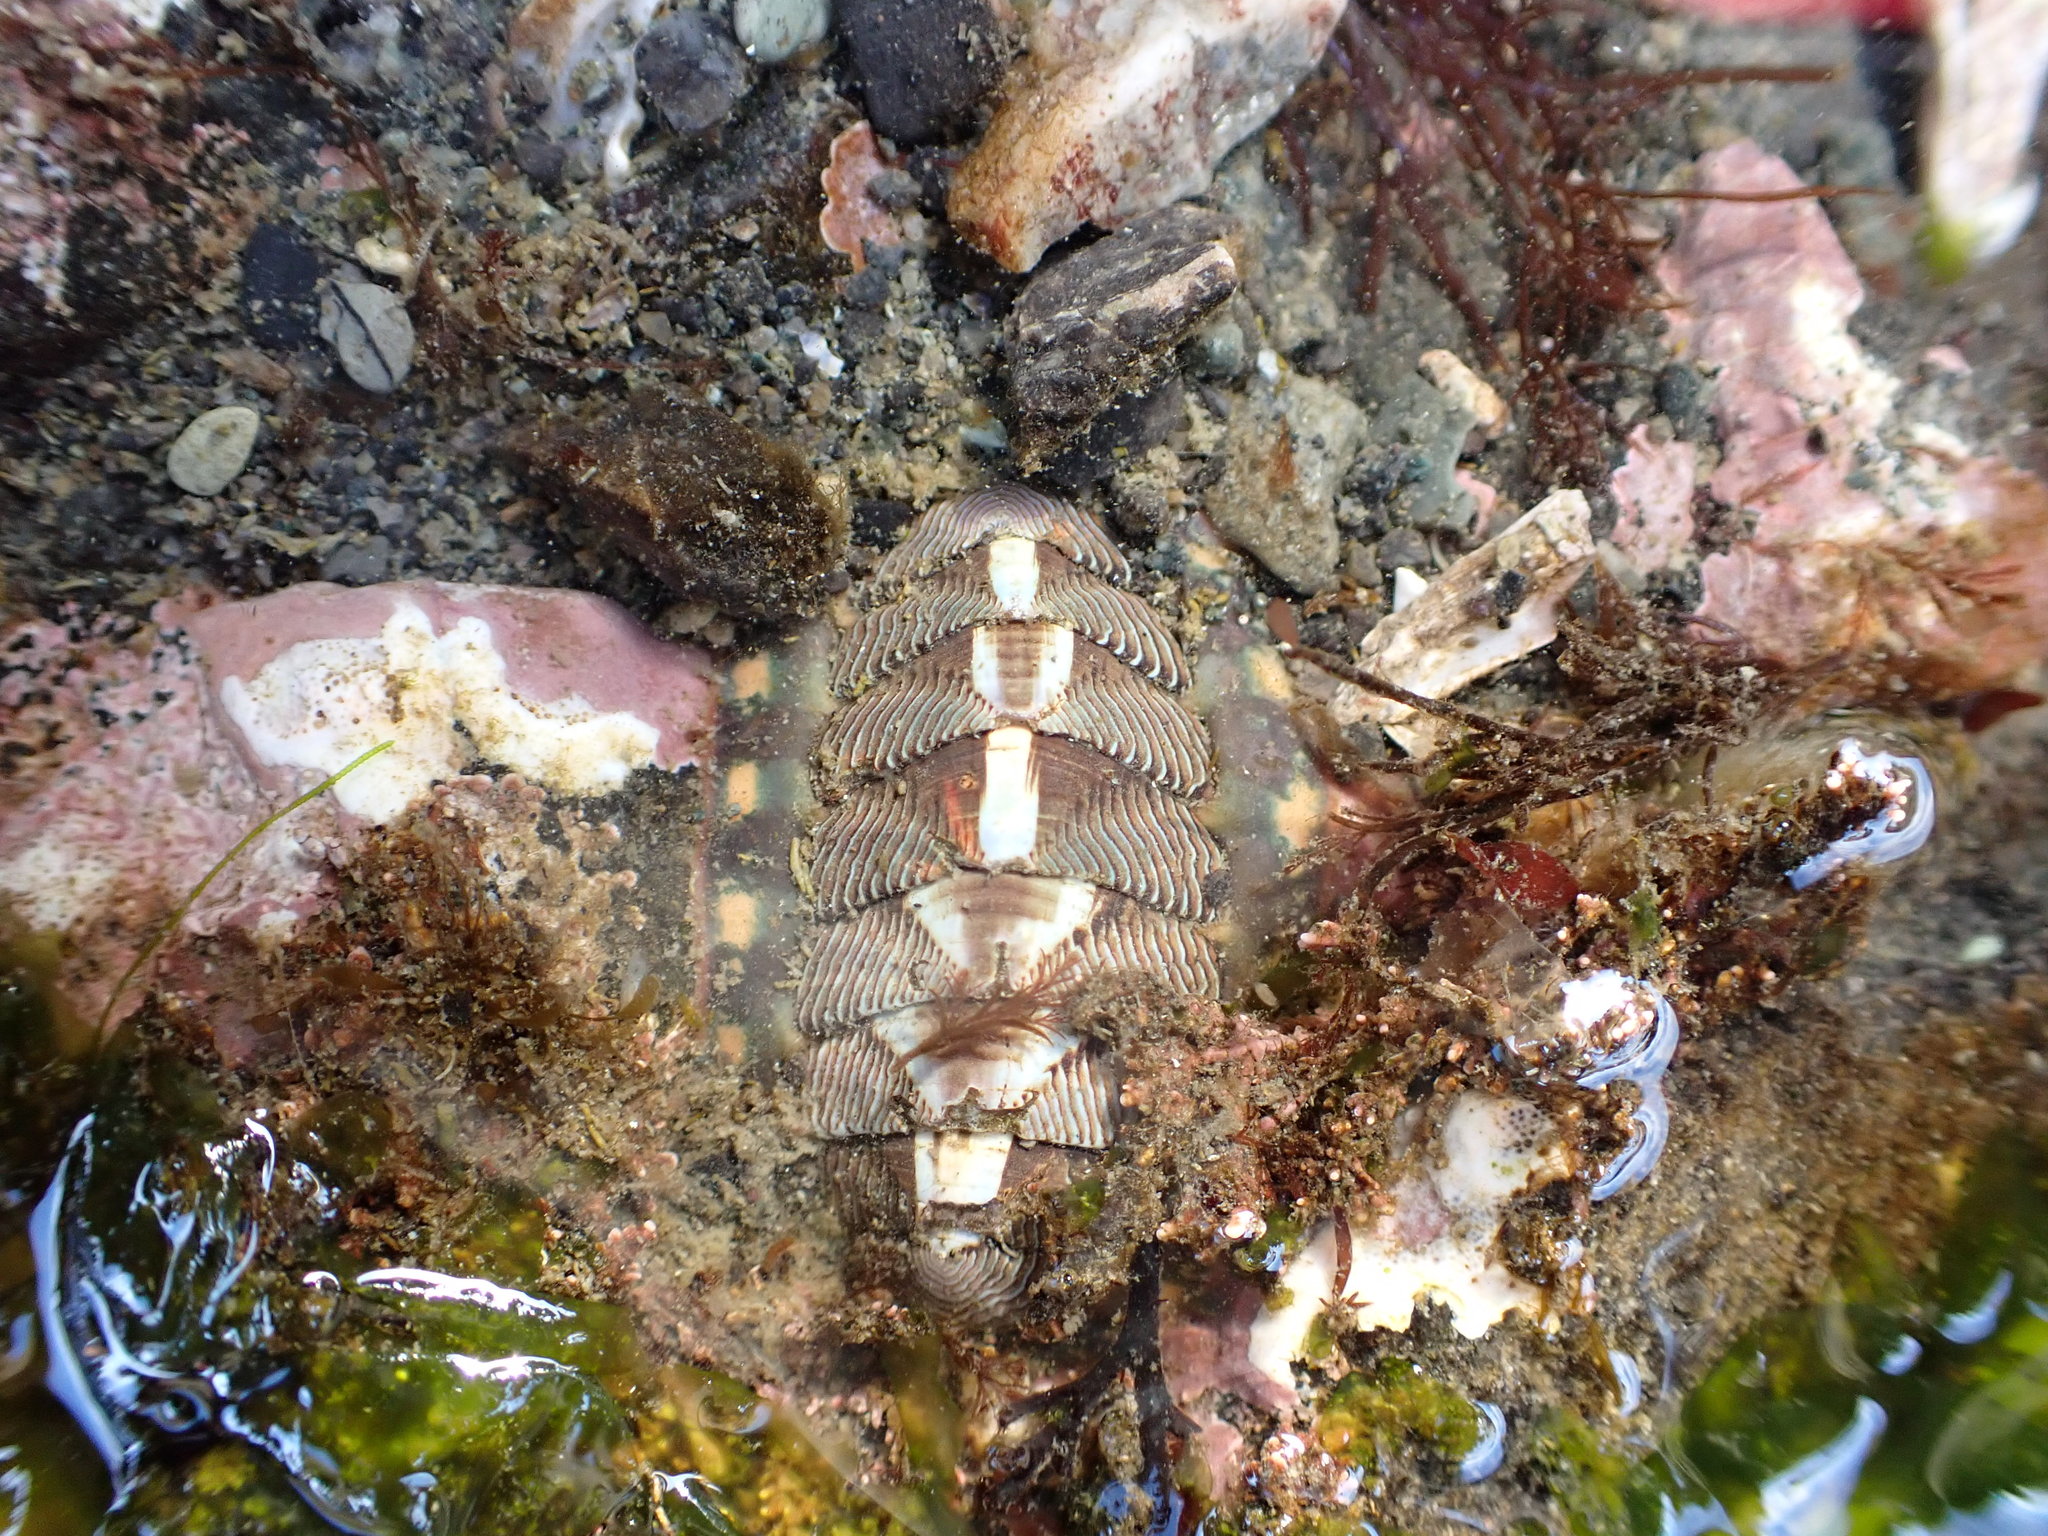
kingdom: Animalia
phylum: Mollusca
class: Polyplacophora
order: Chitonida
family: Tonicellidae
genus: Tonicella
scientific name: Tonicella lineata
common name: Lined chiton
